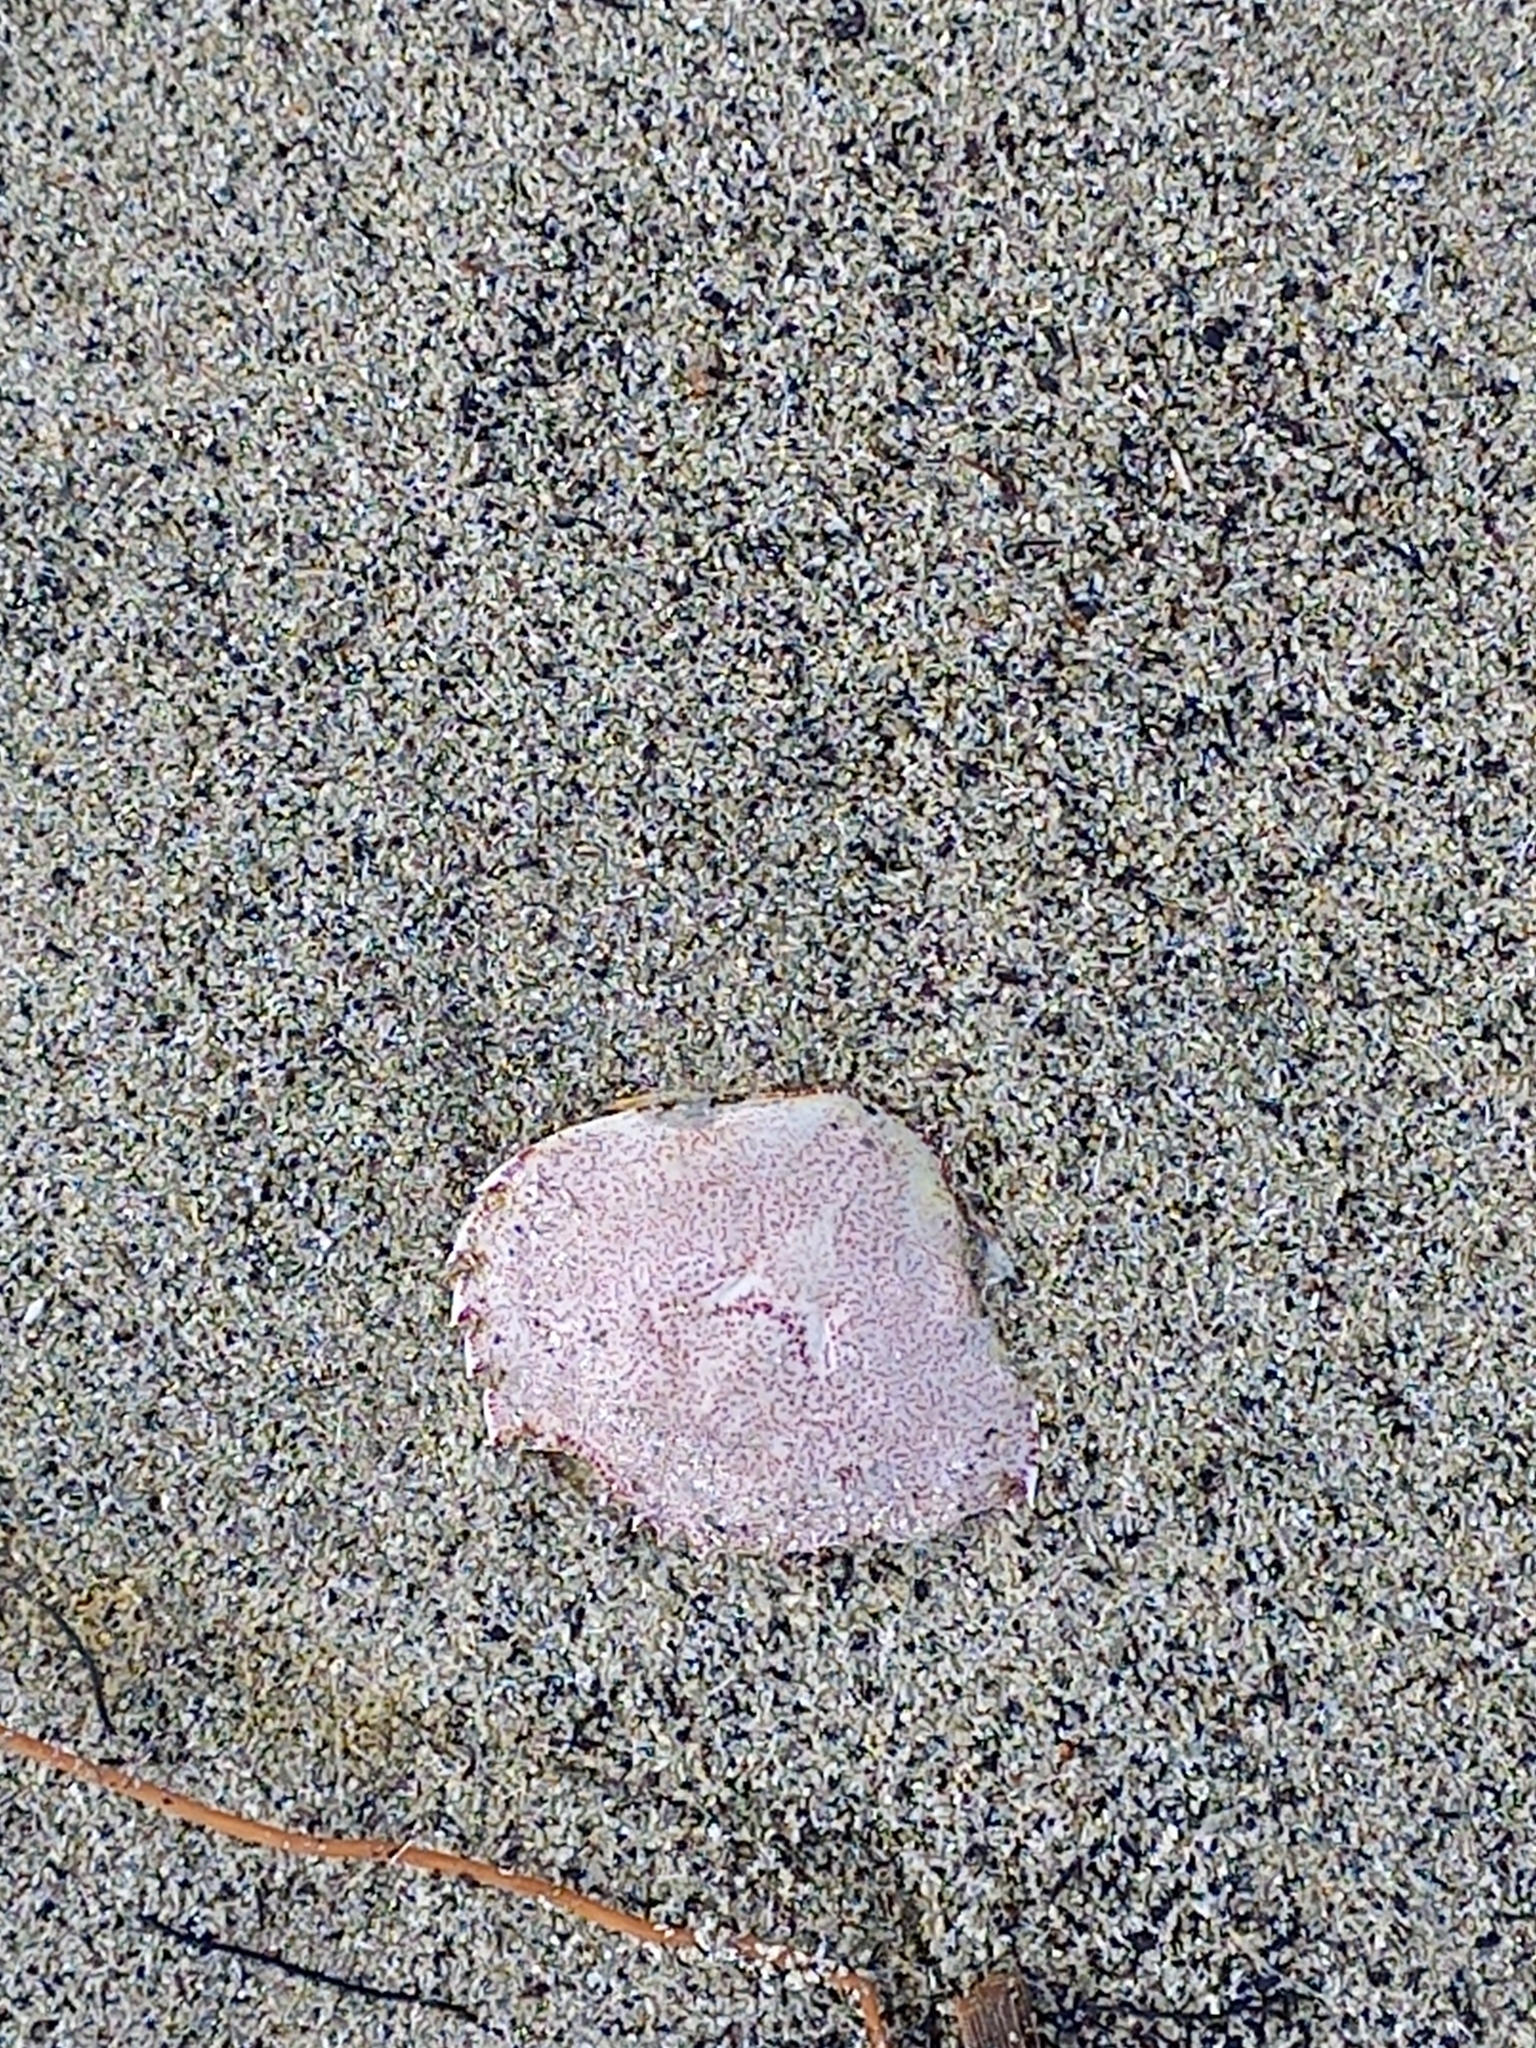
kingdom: Animalia
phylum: Arthropoda
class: Malacostraca
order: Decapoda
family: Ovalipidae
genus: Ovalipes
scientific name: Ovalipes catharus
